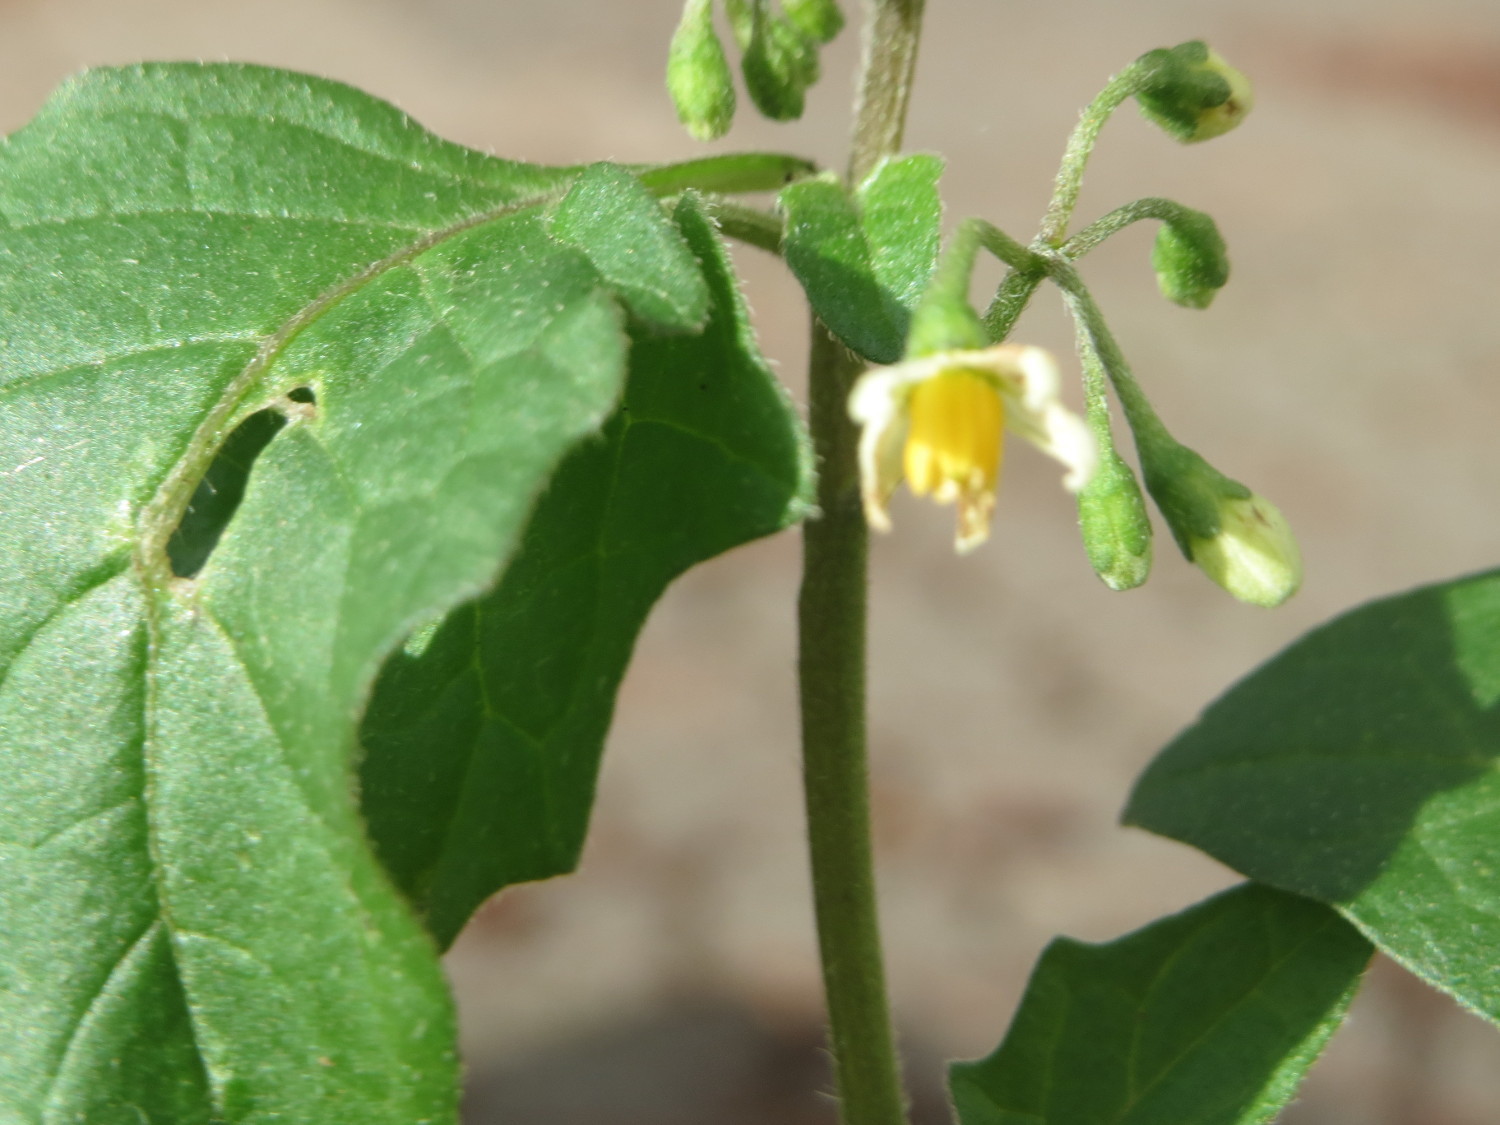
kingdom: Plantae
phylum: Tracheophyta
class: Magnoliopsida
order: Solanales
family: Solanaceae
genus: Solanum
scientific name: Solanum nigrum
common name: Black nightshade
